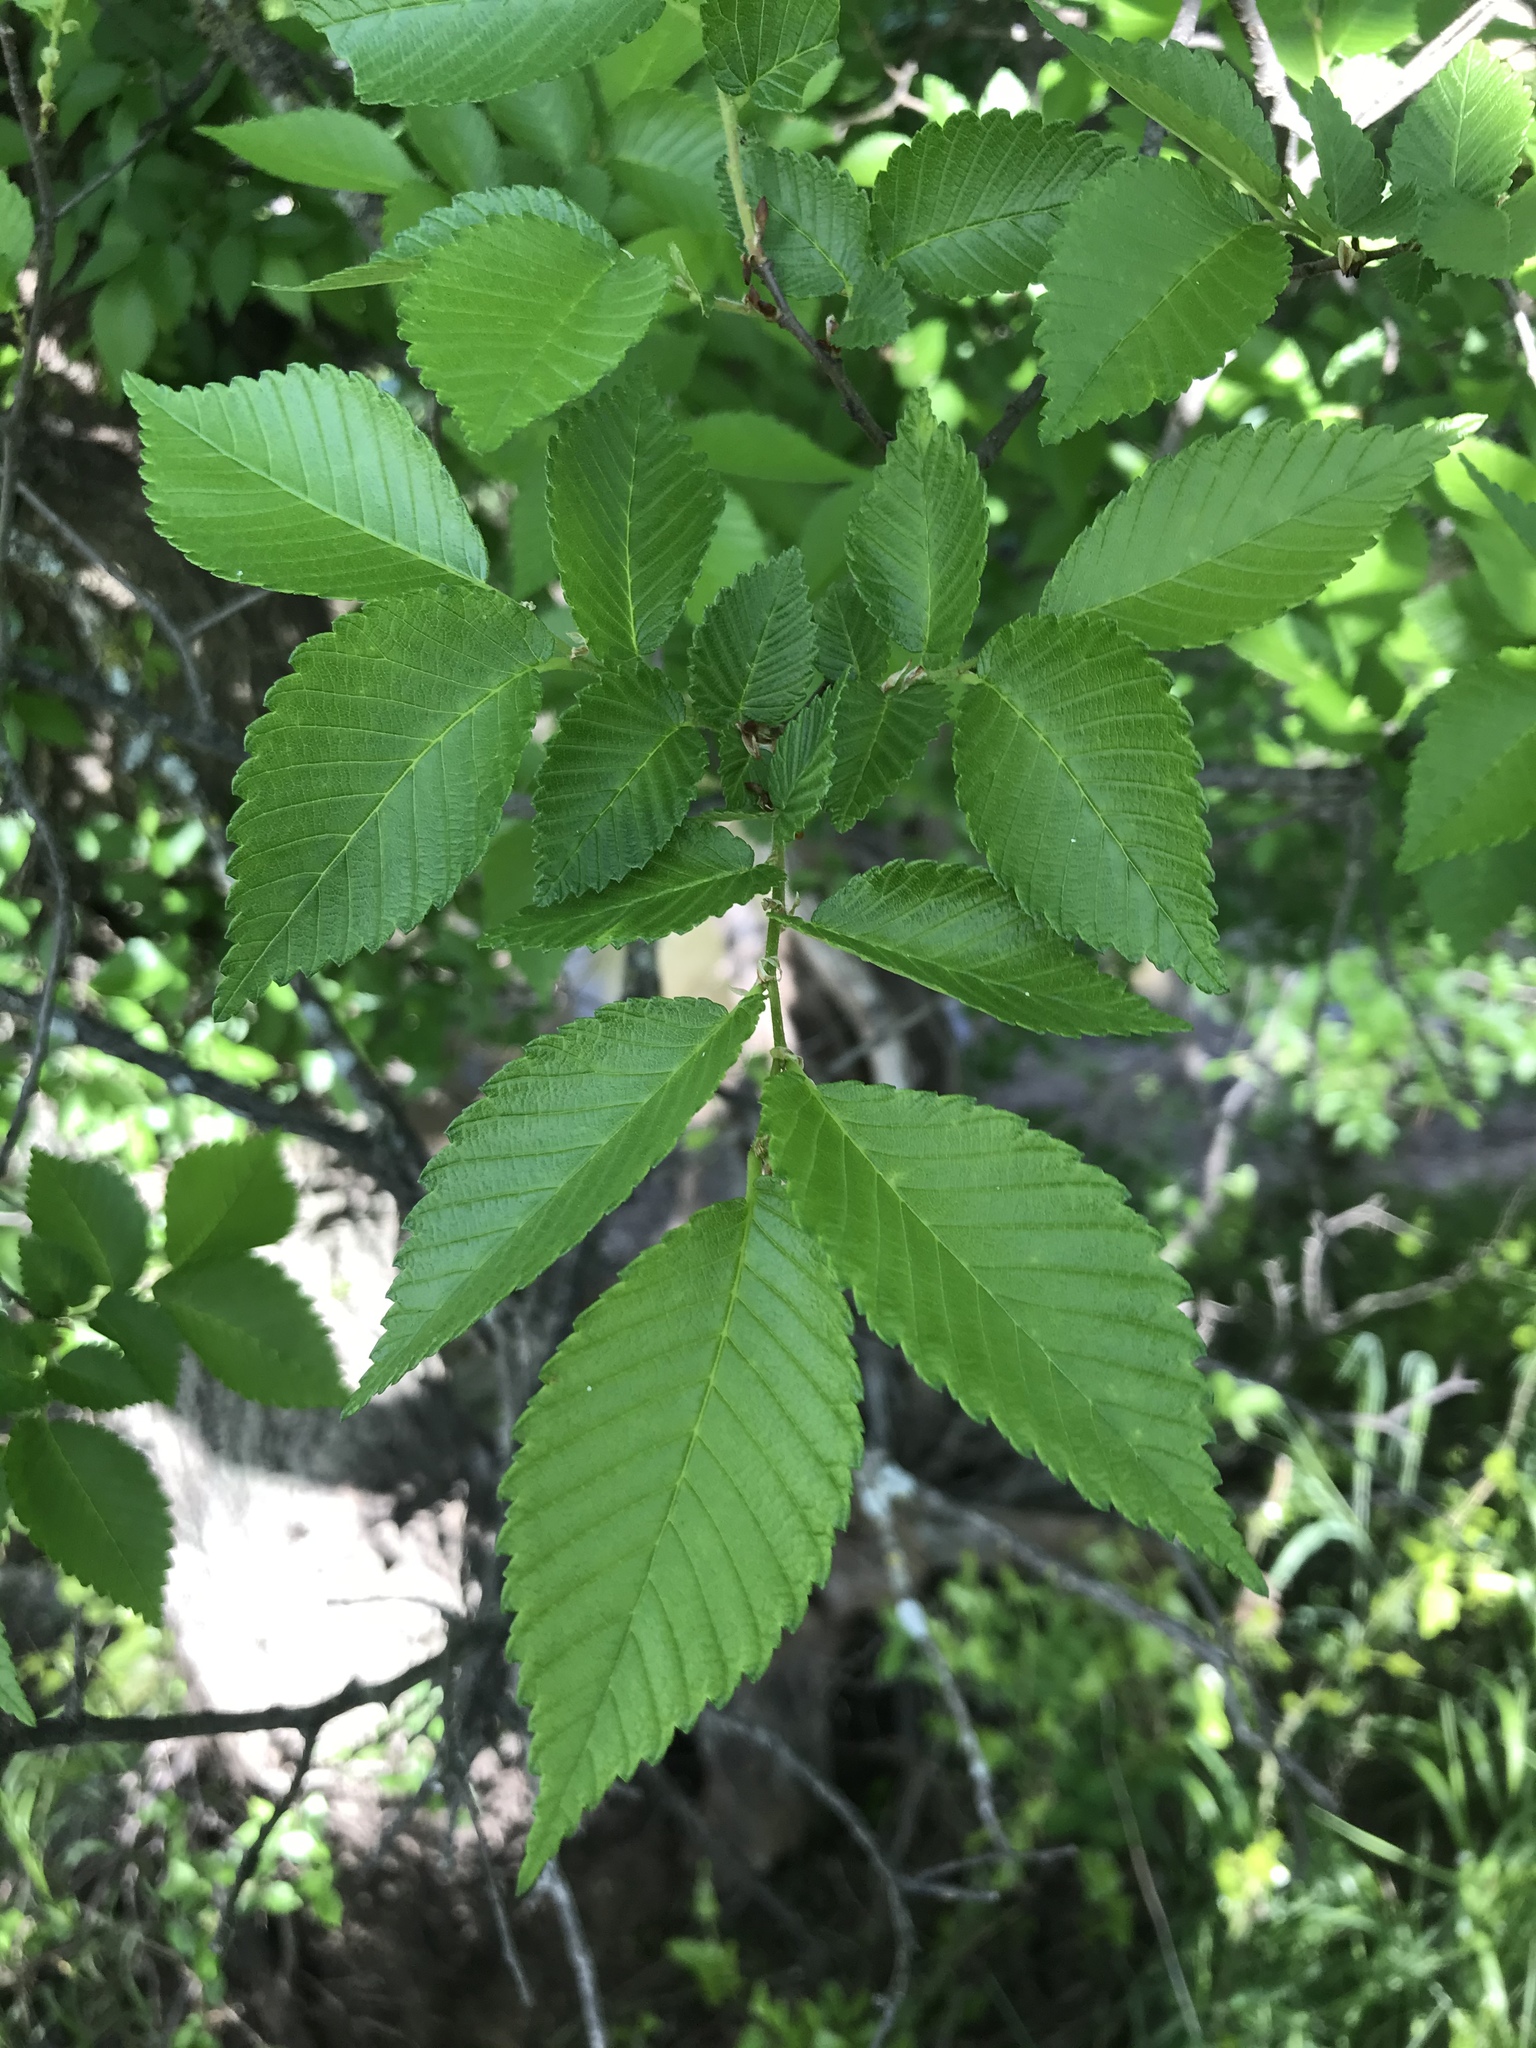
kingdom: Plantae
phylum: Tracheophyta
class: Magnoliopsida
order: Rosales
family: Ulmaceae
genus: Ulmus
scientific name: Ulmus americana
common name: American elm
